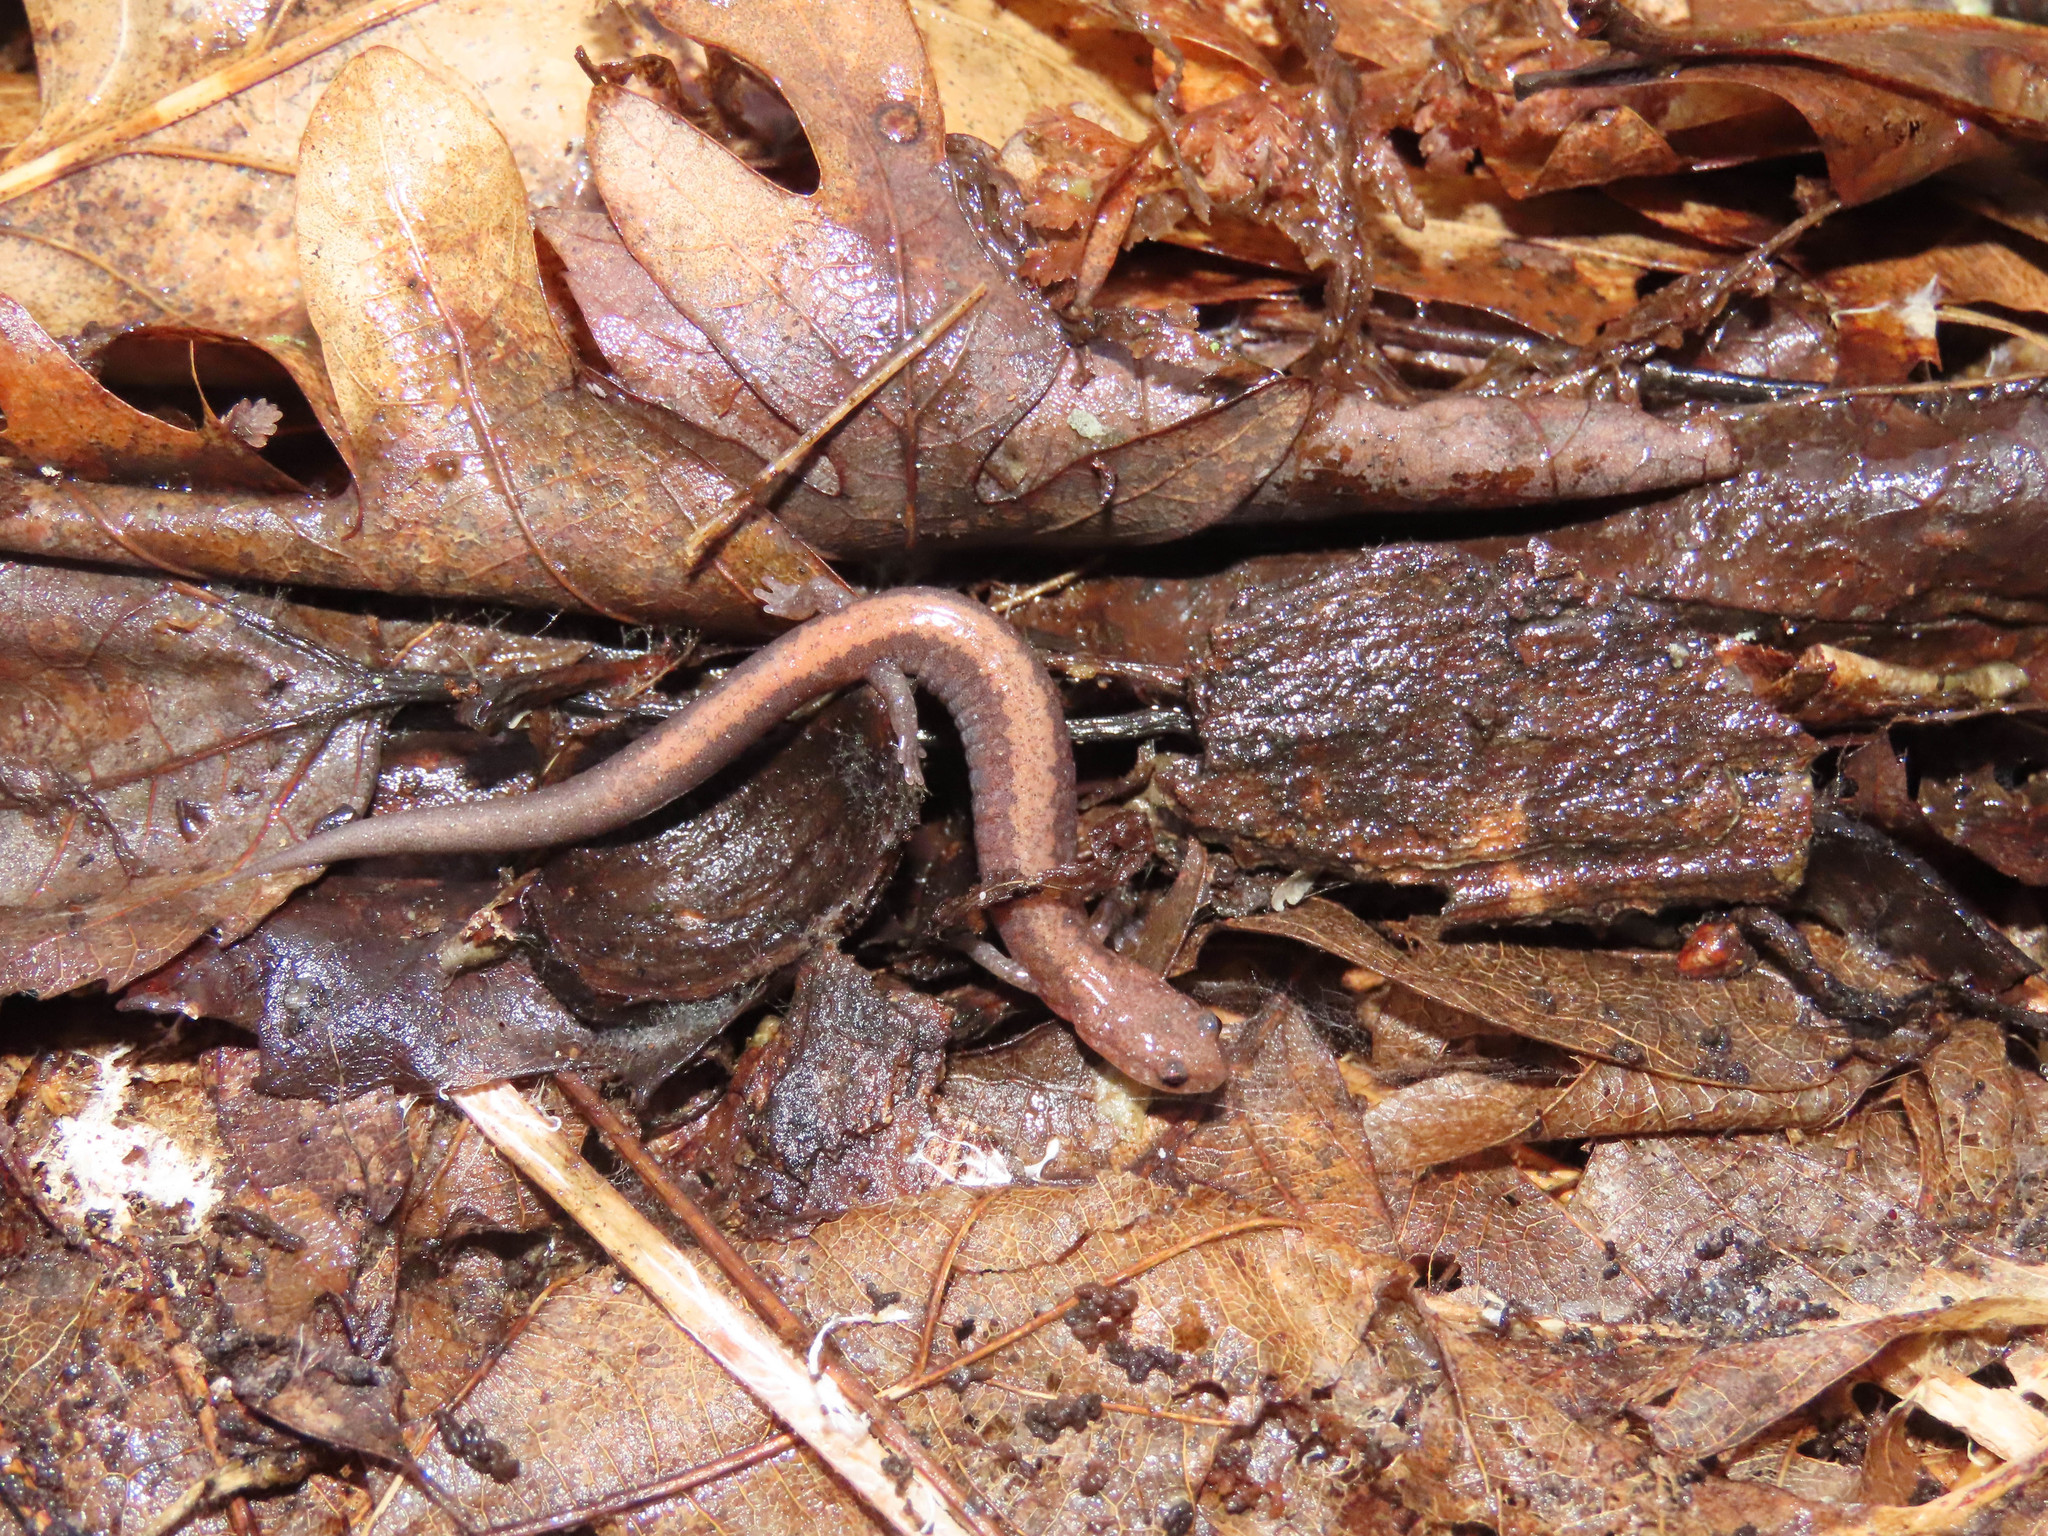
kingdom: Animalia
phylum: Chordata
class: Amphibia
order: Caudata
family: Plethodontidae
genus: Plethodon
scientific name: Plethodon cinereus
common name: Redback salamander
